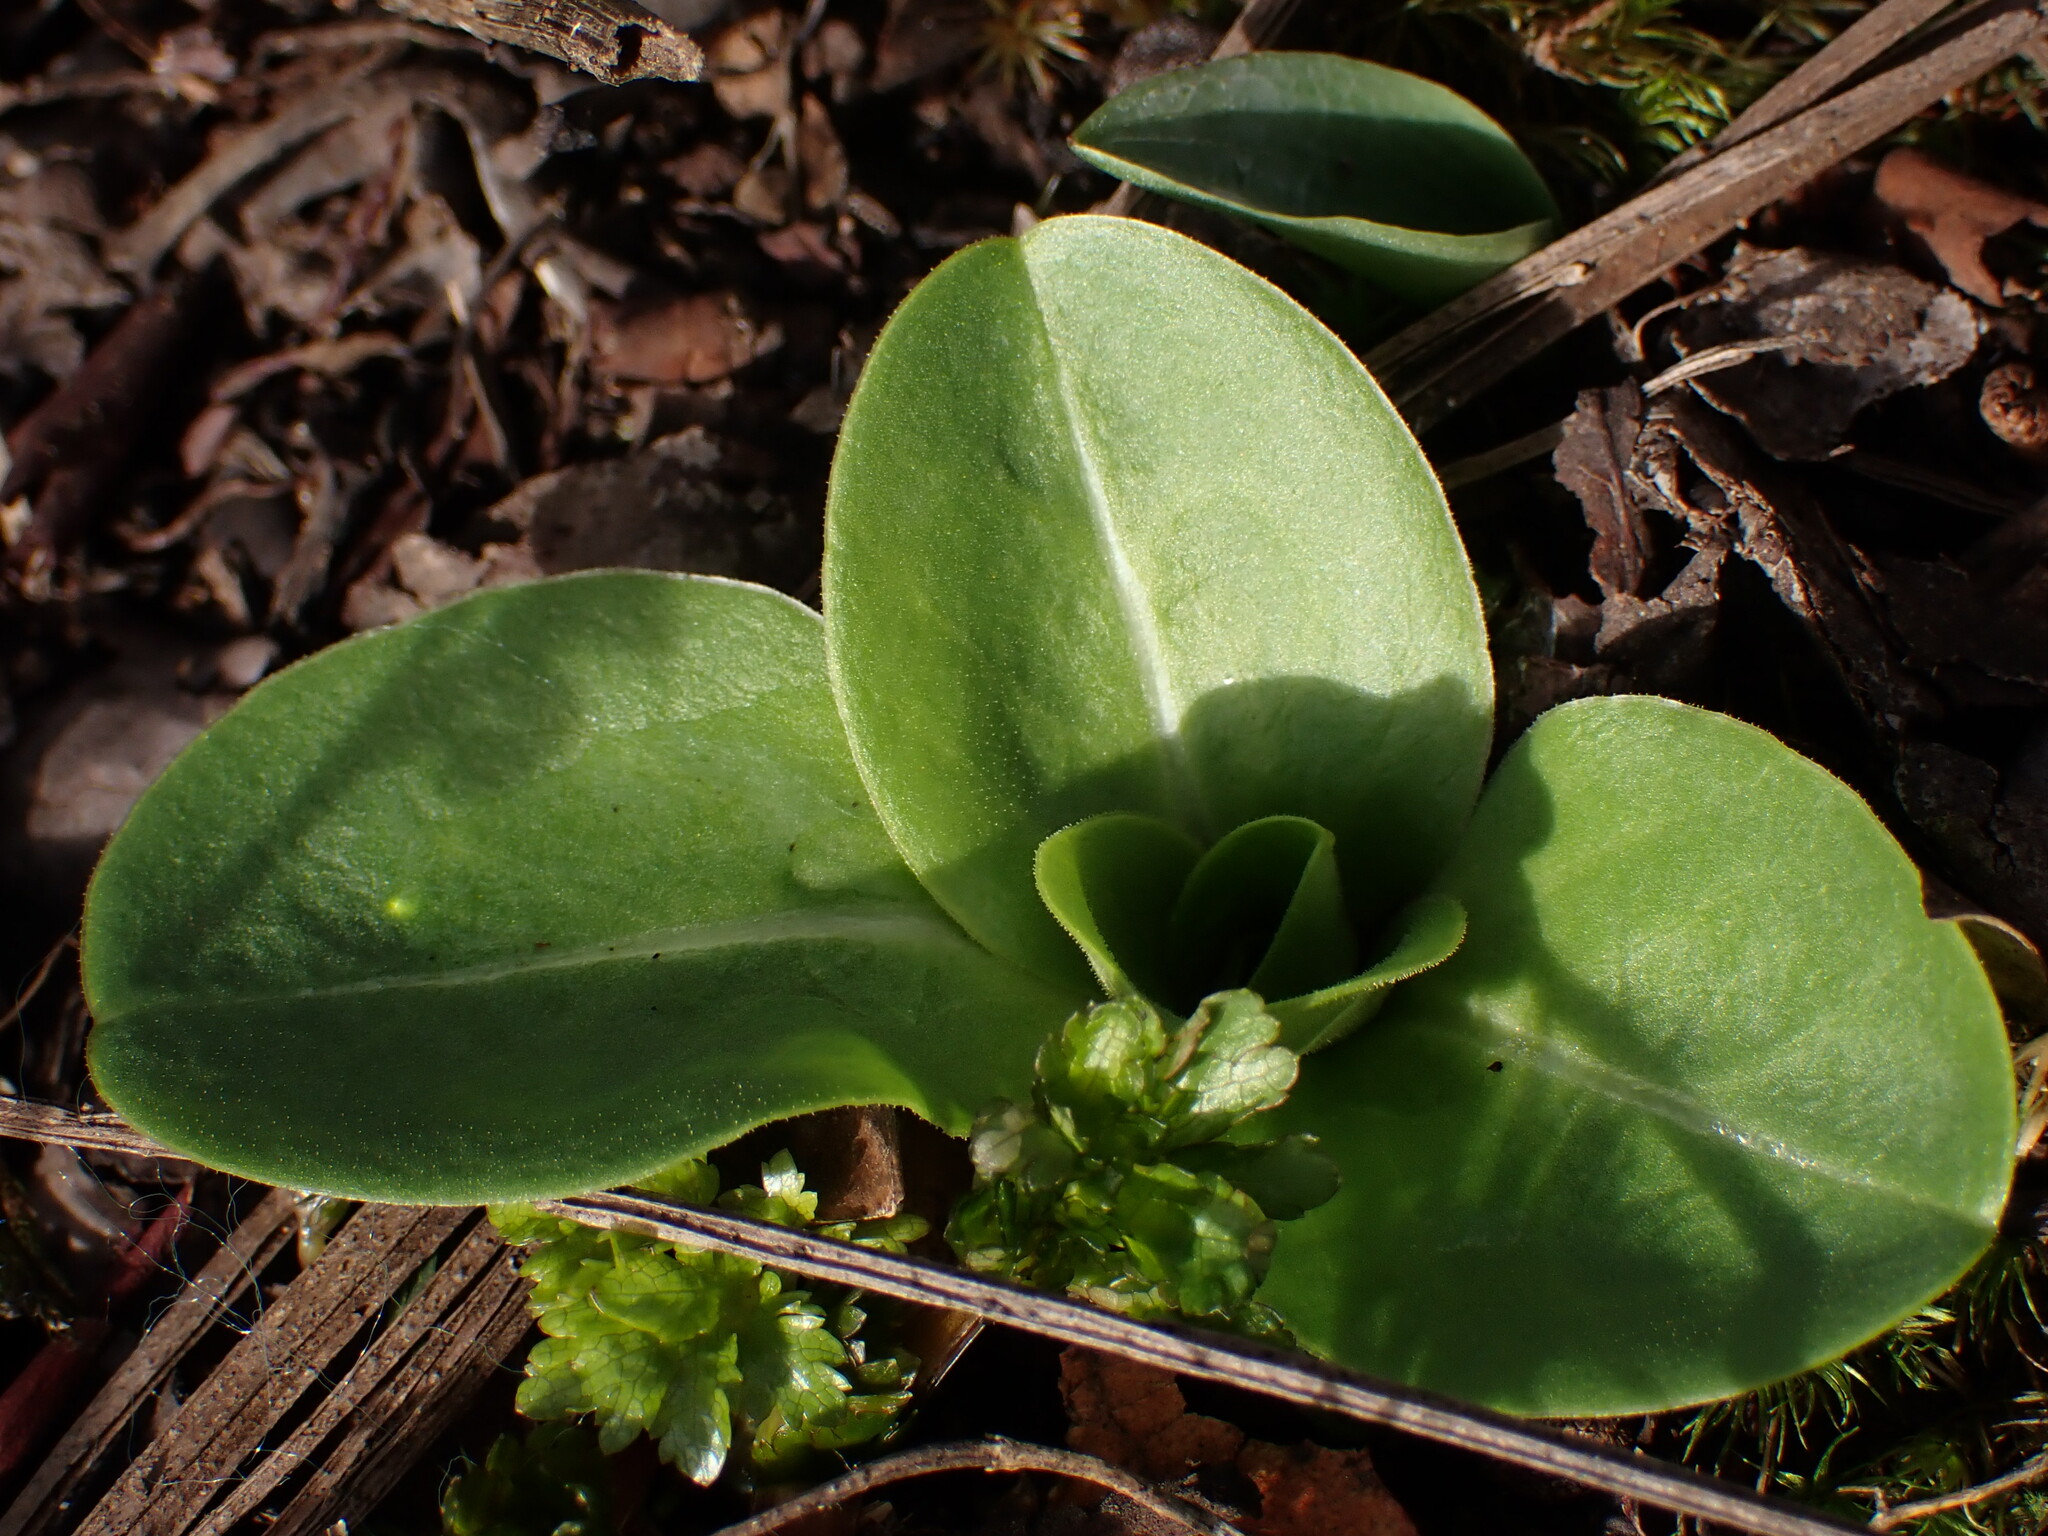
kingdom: Plantae
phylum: Tracheophyta
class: Magnoliopsida
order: Ericales
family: Primulaceae
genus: Dodecatheon
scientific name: Dodecatheon hendersonii
